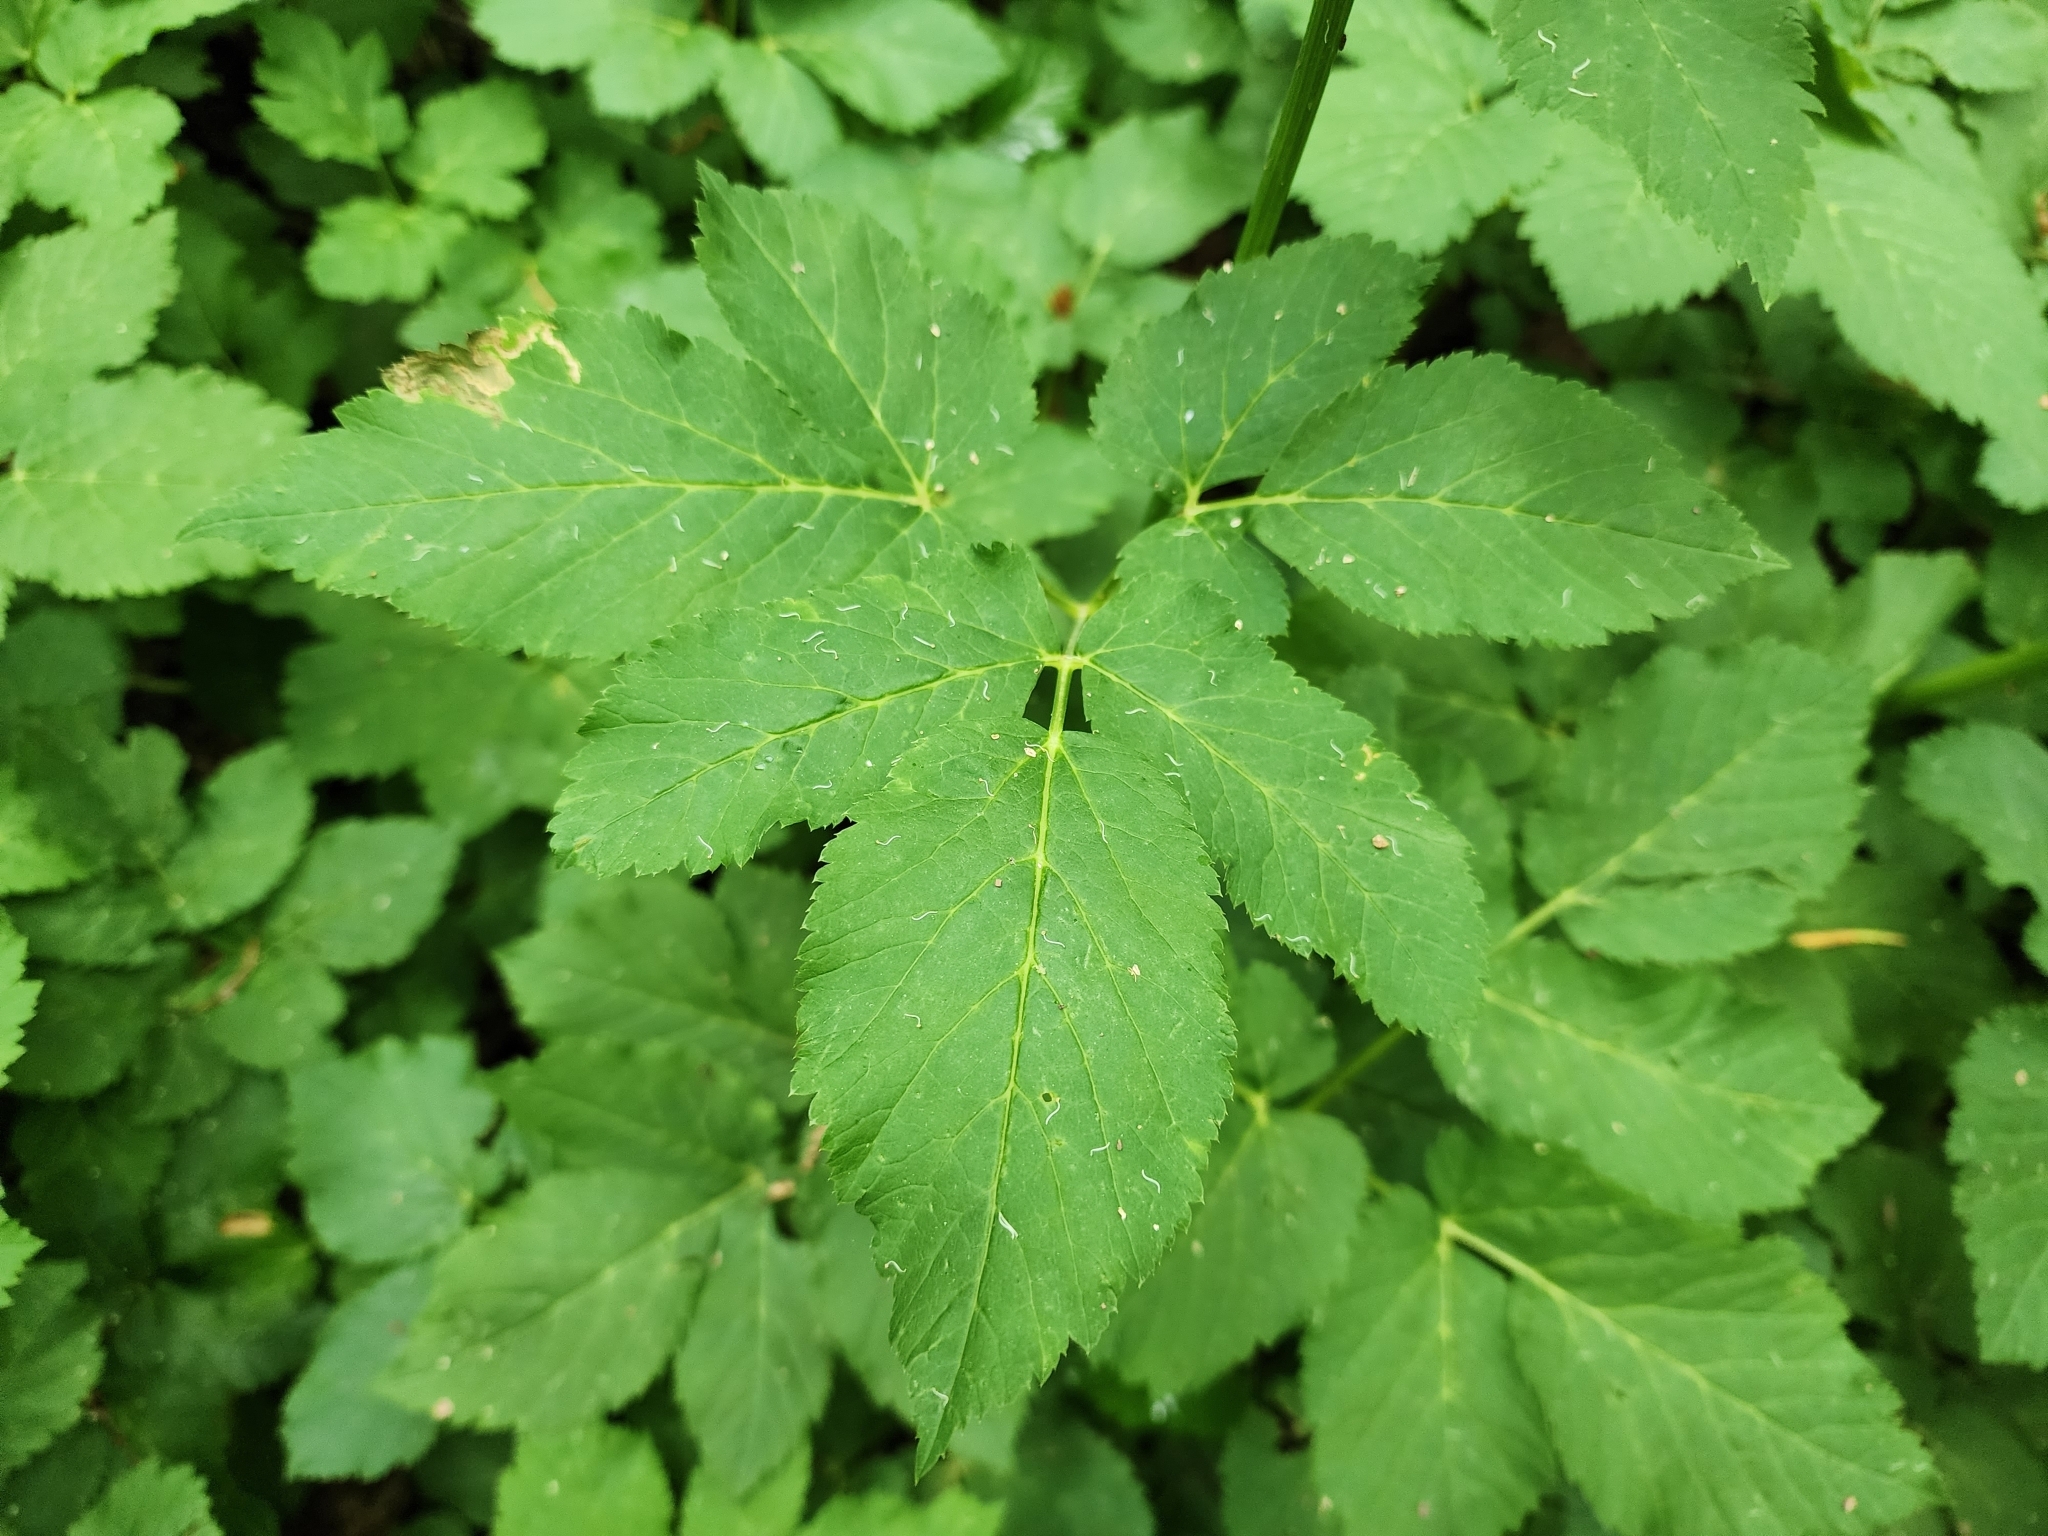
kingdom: Plantae
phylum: Tracheophyta
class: Magnoliopsida
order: Apiales
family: Apiaceae
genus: Aegopodium
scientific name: Aegopodium podagraria
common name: Ground-elder
